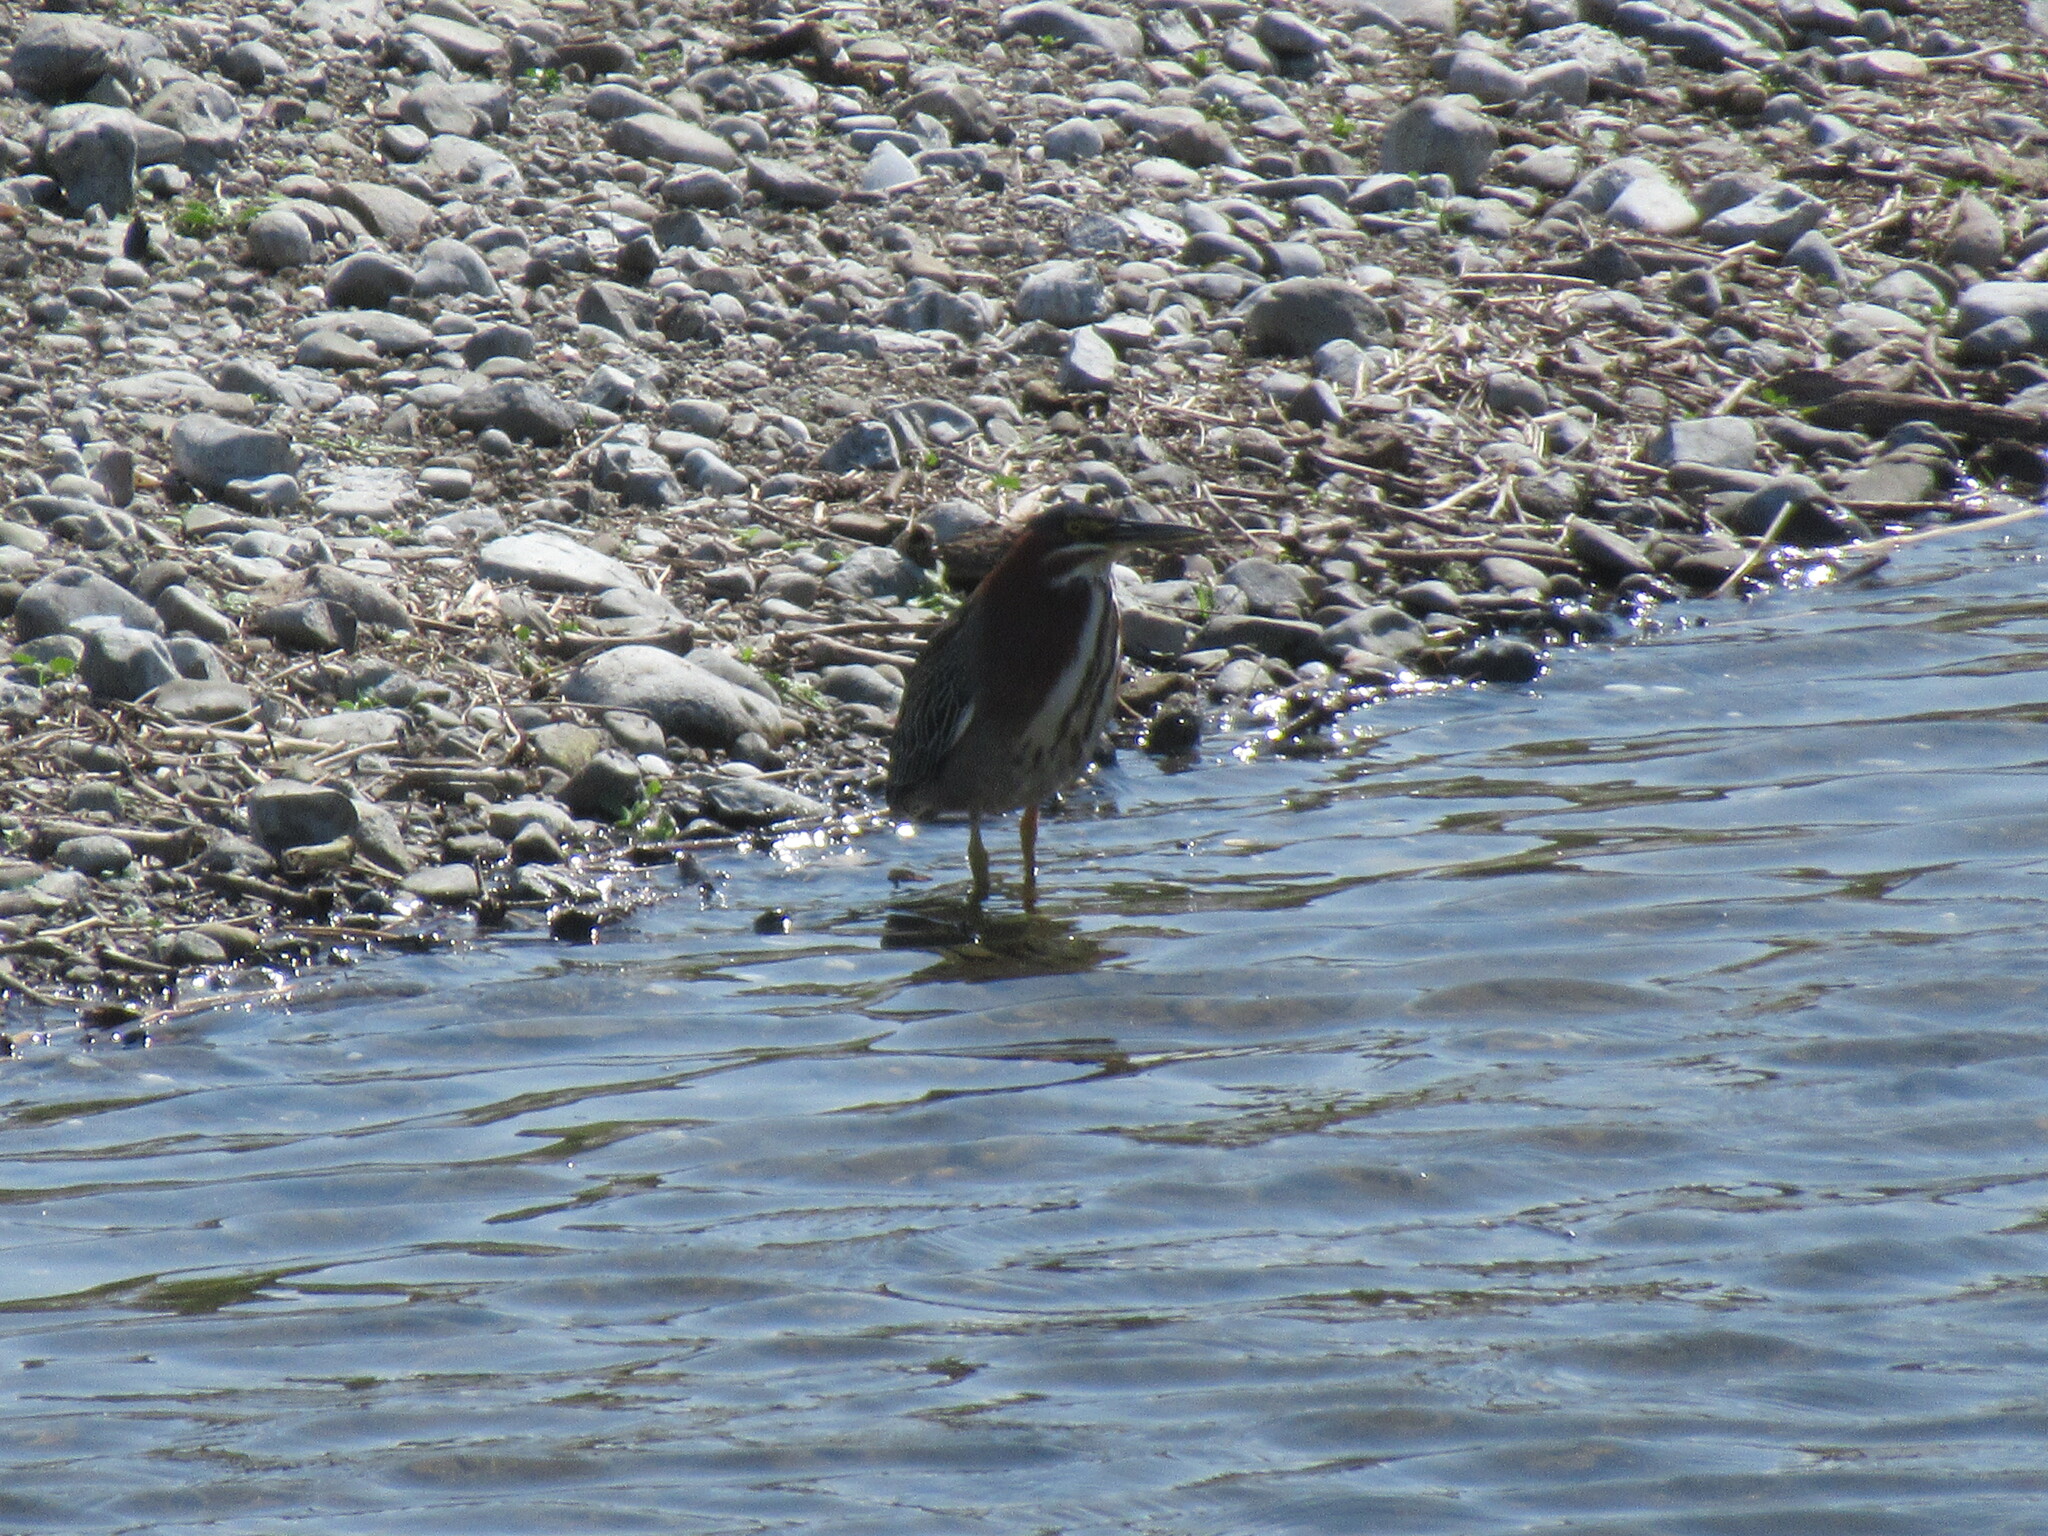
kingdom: Animalia
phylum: Chordata
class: Aves
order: Pelecaniformes
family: Ardeidae
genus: Butorides
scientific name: Butorides virescens
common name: Green heron
